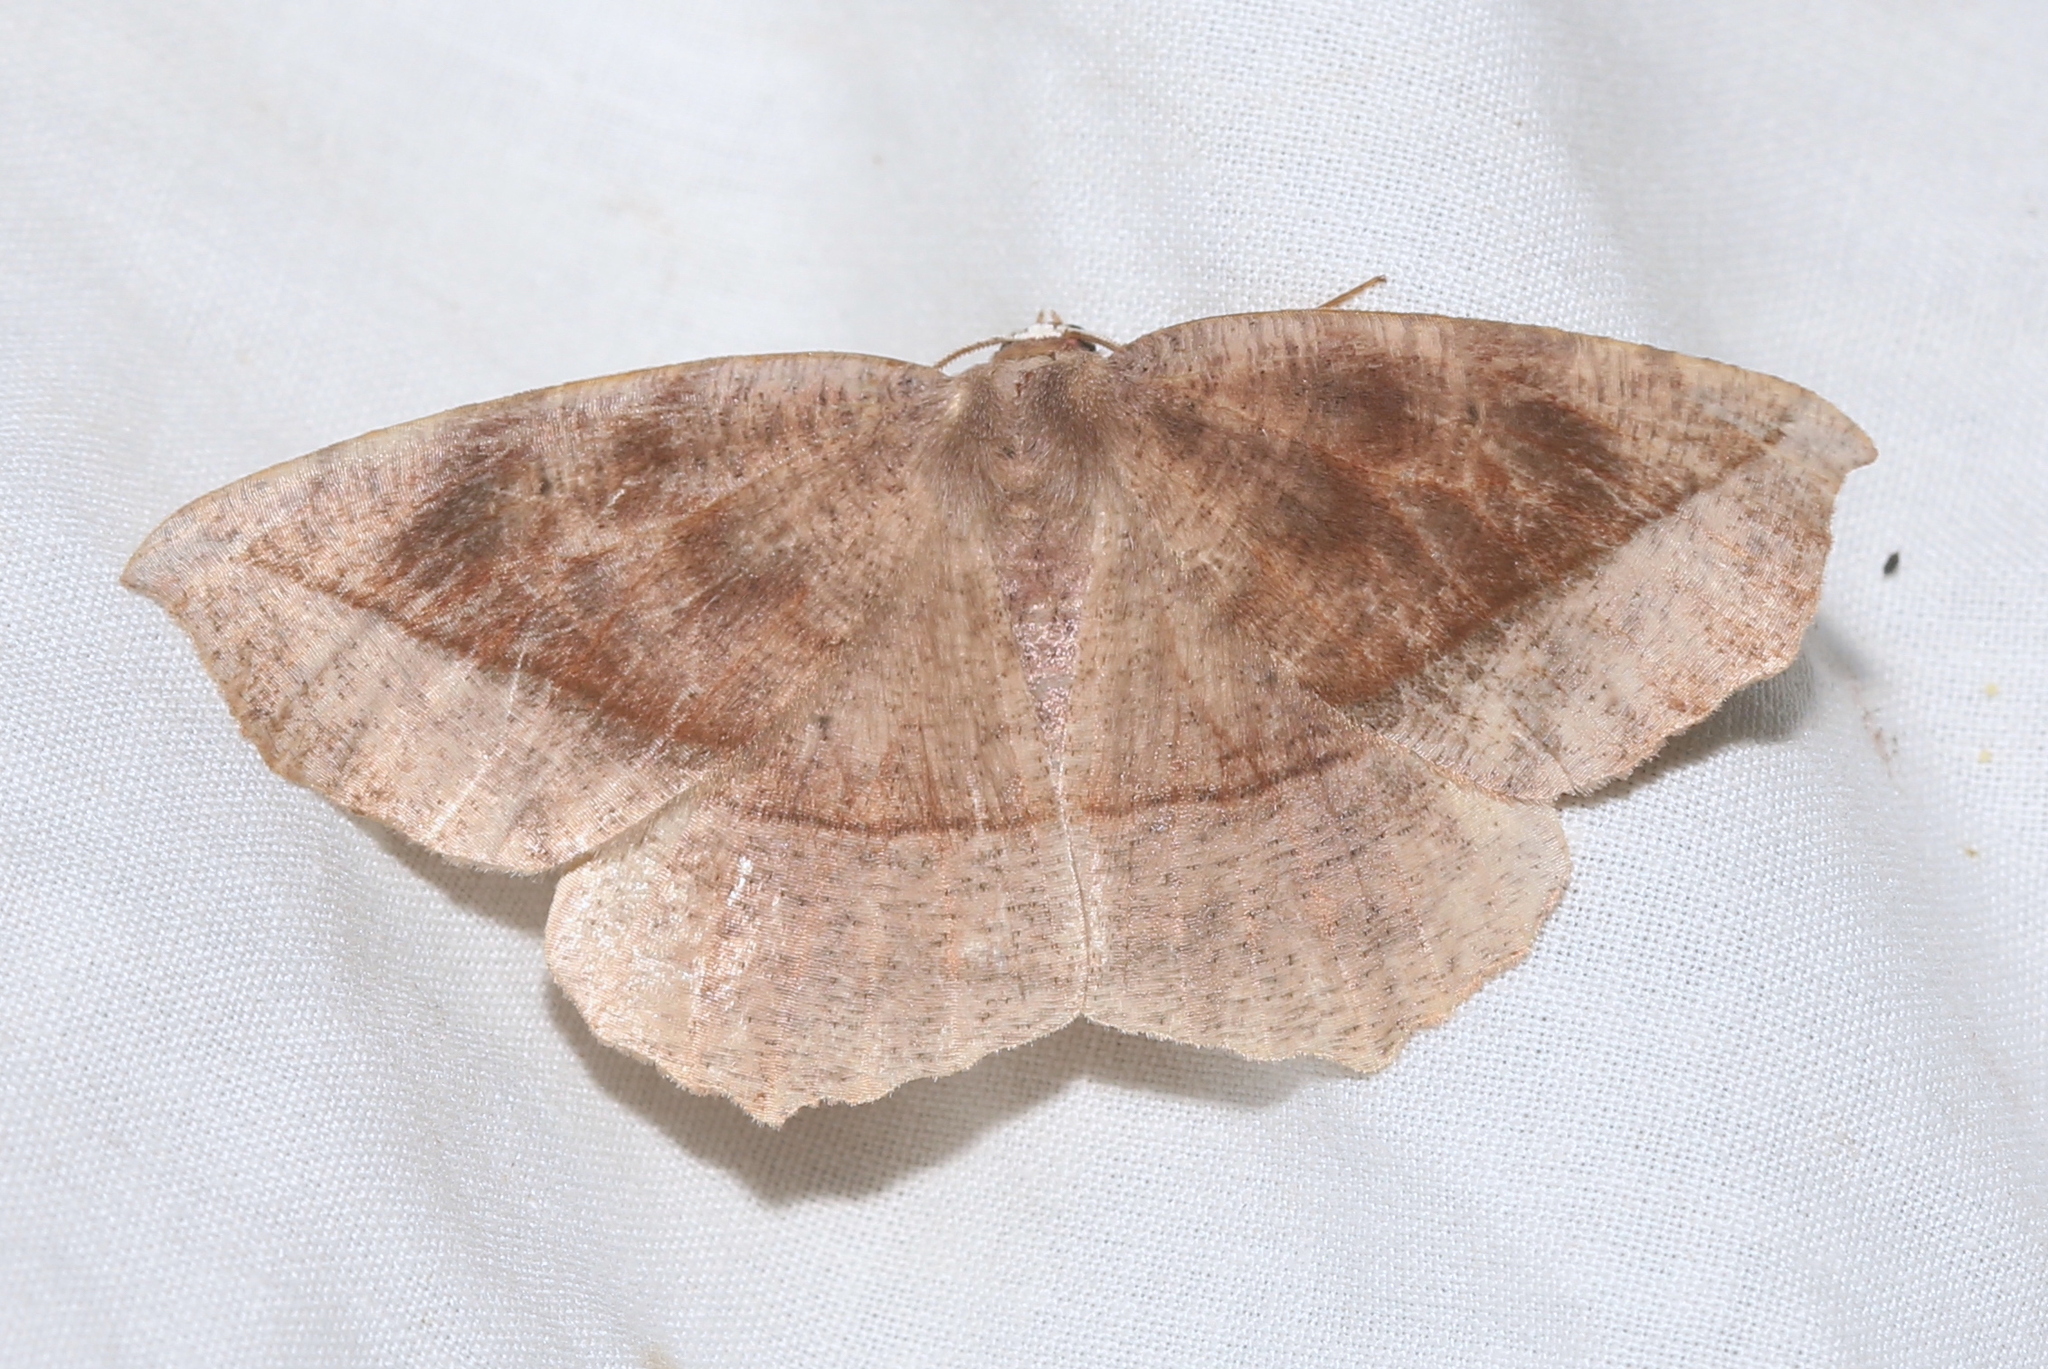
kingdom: Animalia
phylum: Arthropoda
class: Insecta
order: Lepidoptera
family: Geometridae
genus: Eutrapela
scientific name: Eutrapela clemataria
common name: Curved-toothed geometer
